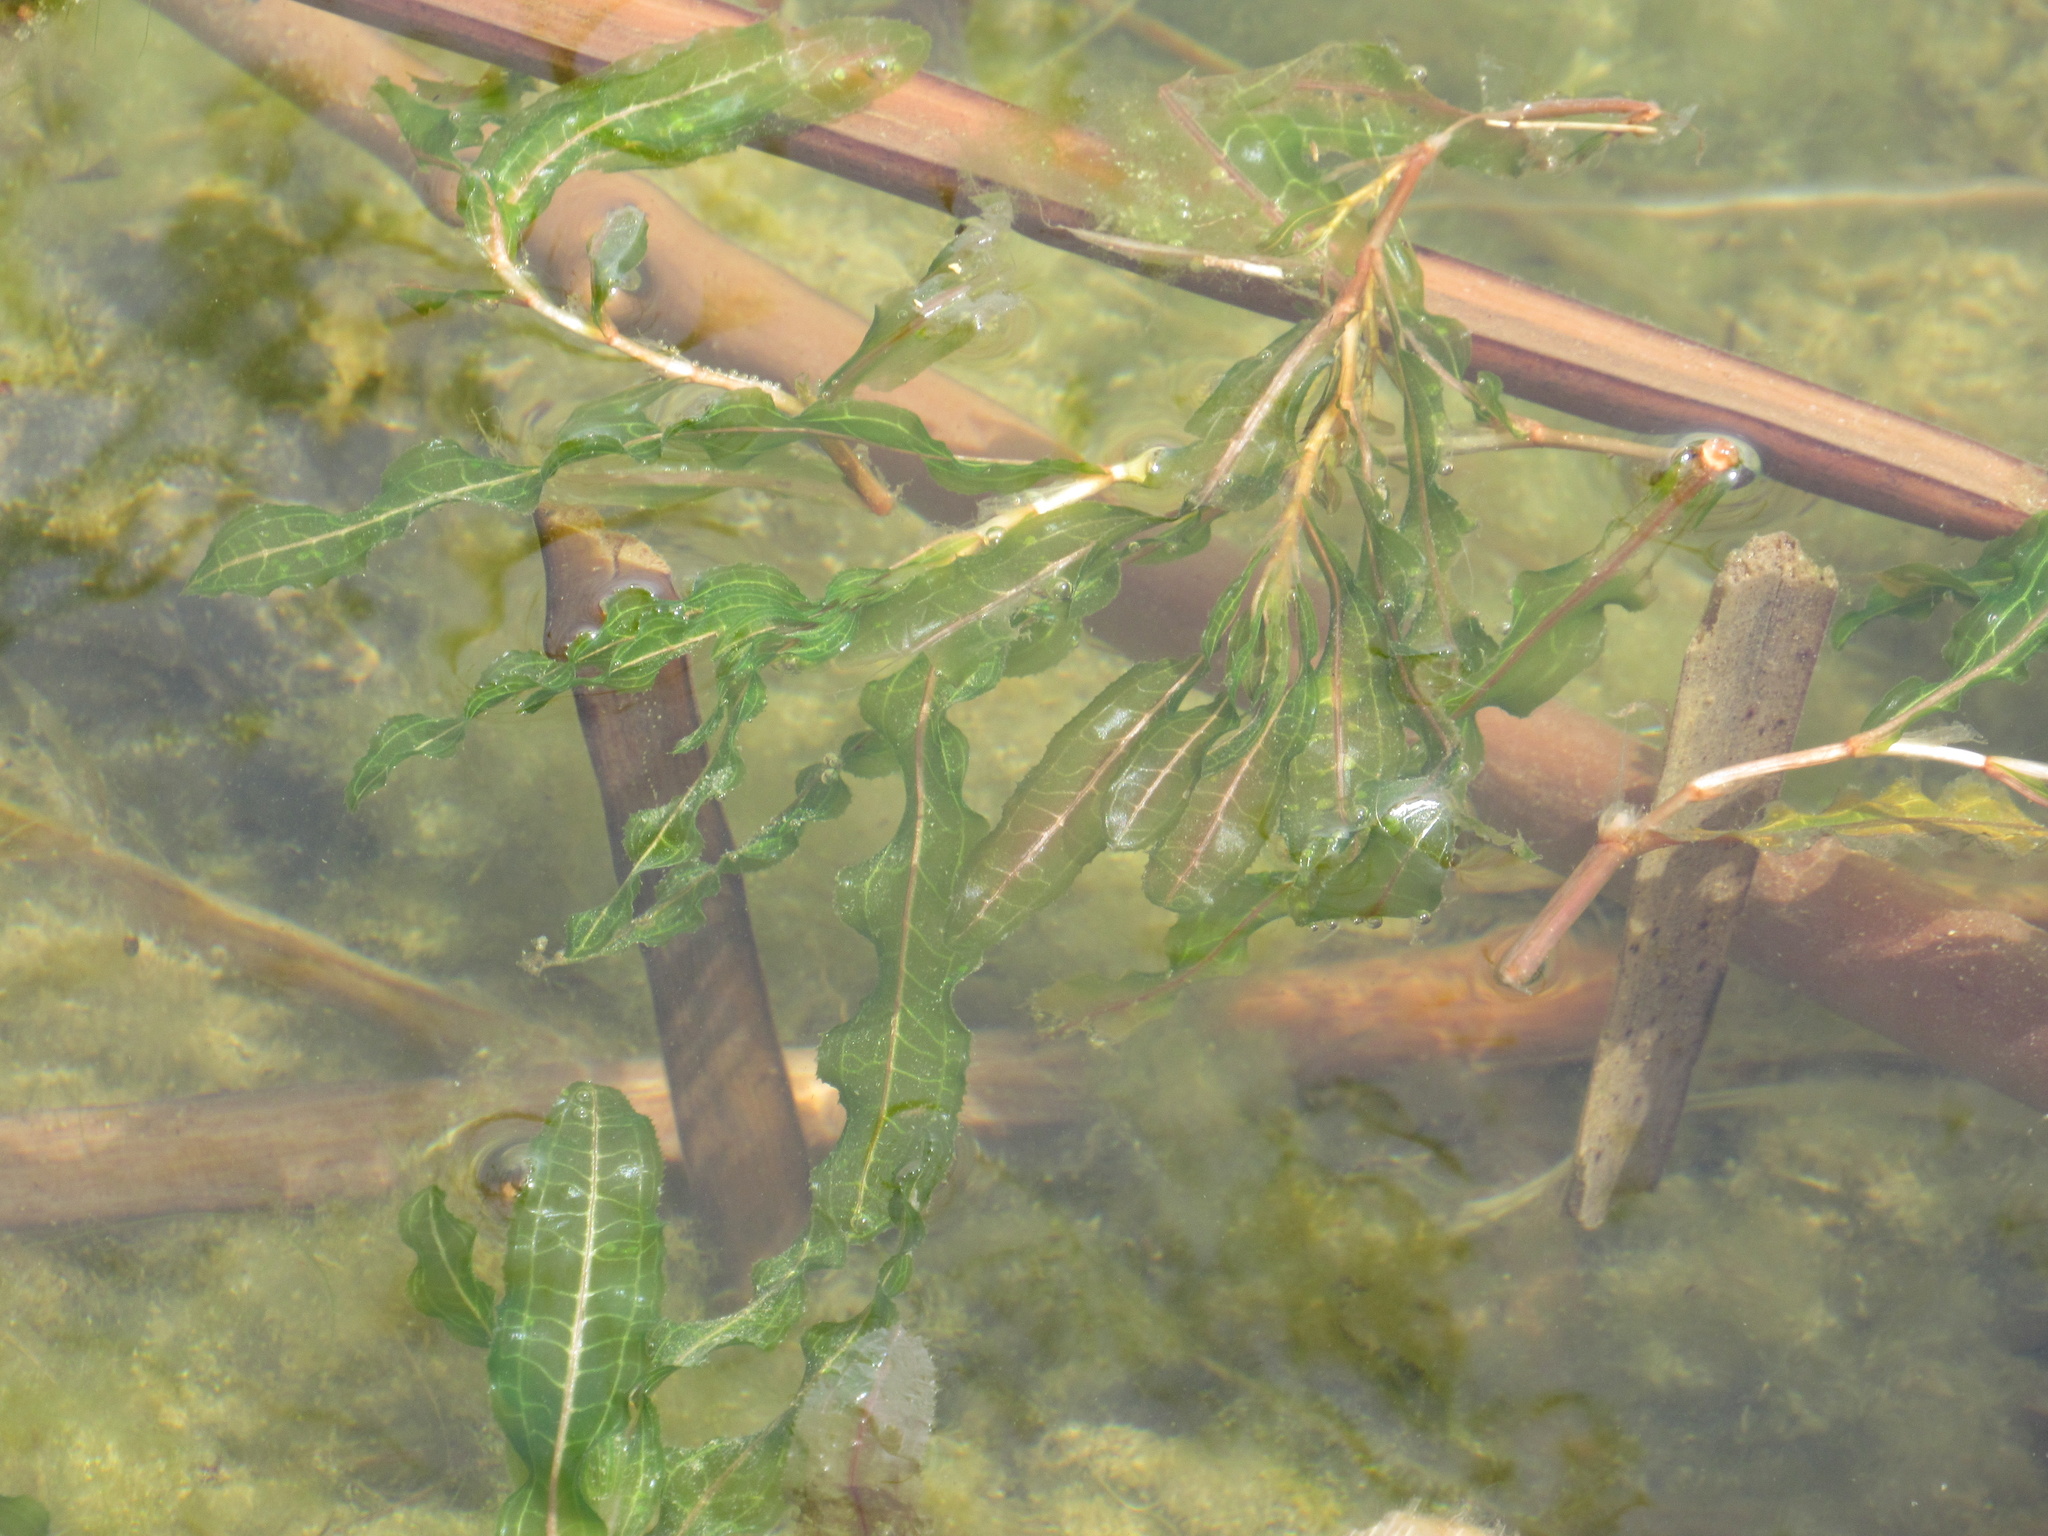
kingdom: Plantae
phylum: Tracheophyta
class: Liliopsida
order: Alismatales
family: Potamogetonaceae
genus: Potamogeton
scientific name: Potamogeton crispus
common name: Curled pondweed
